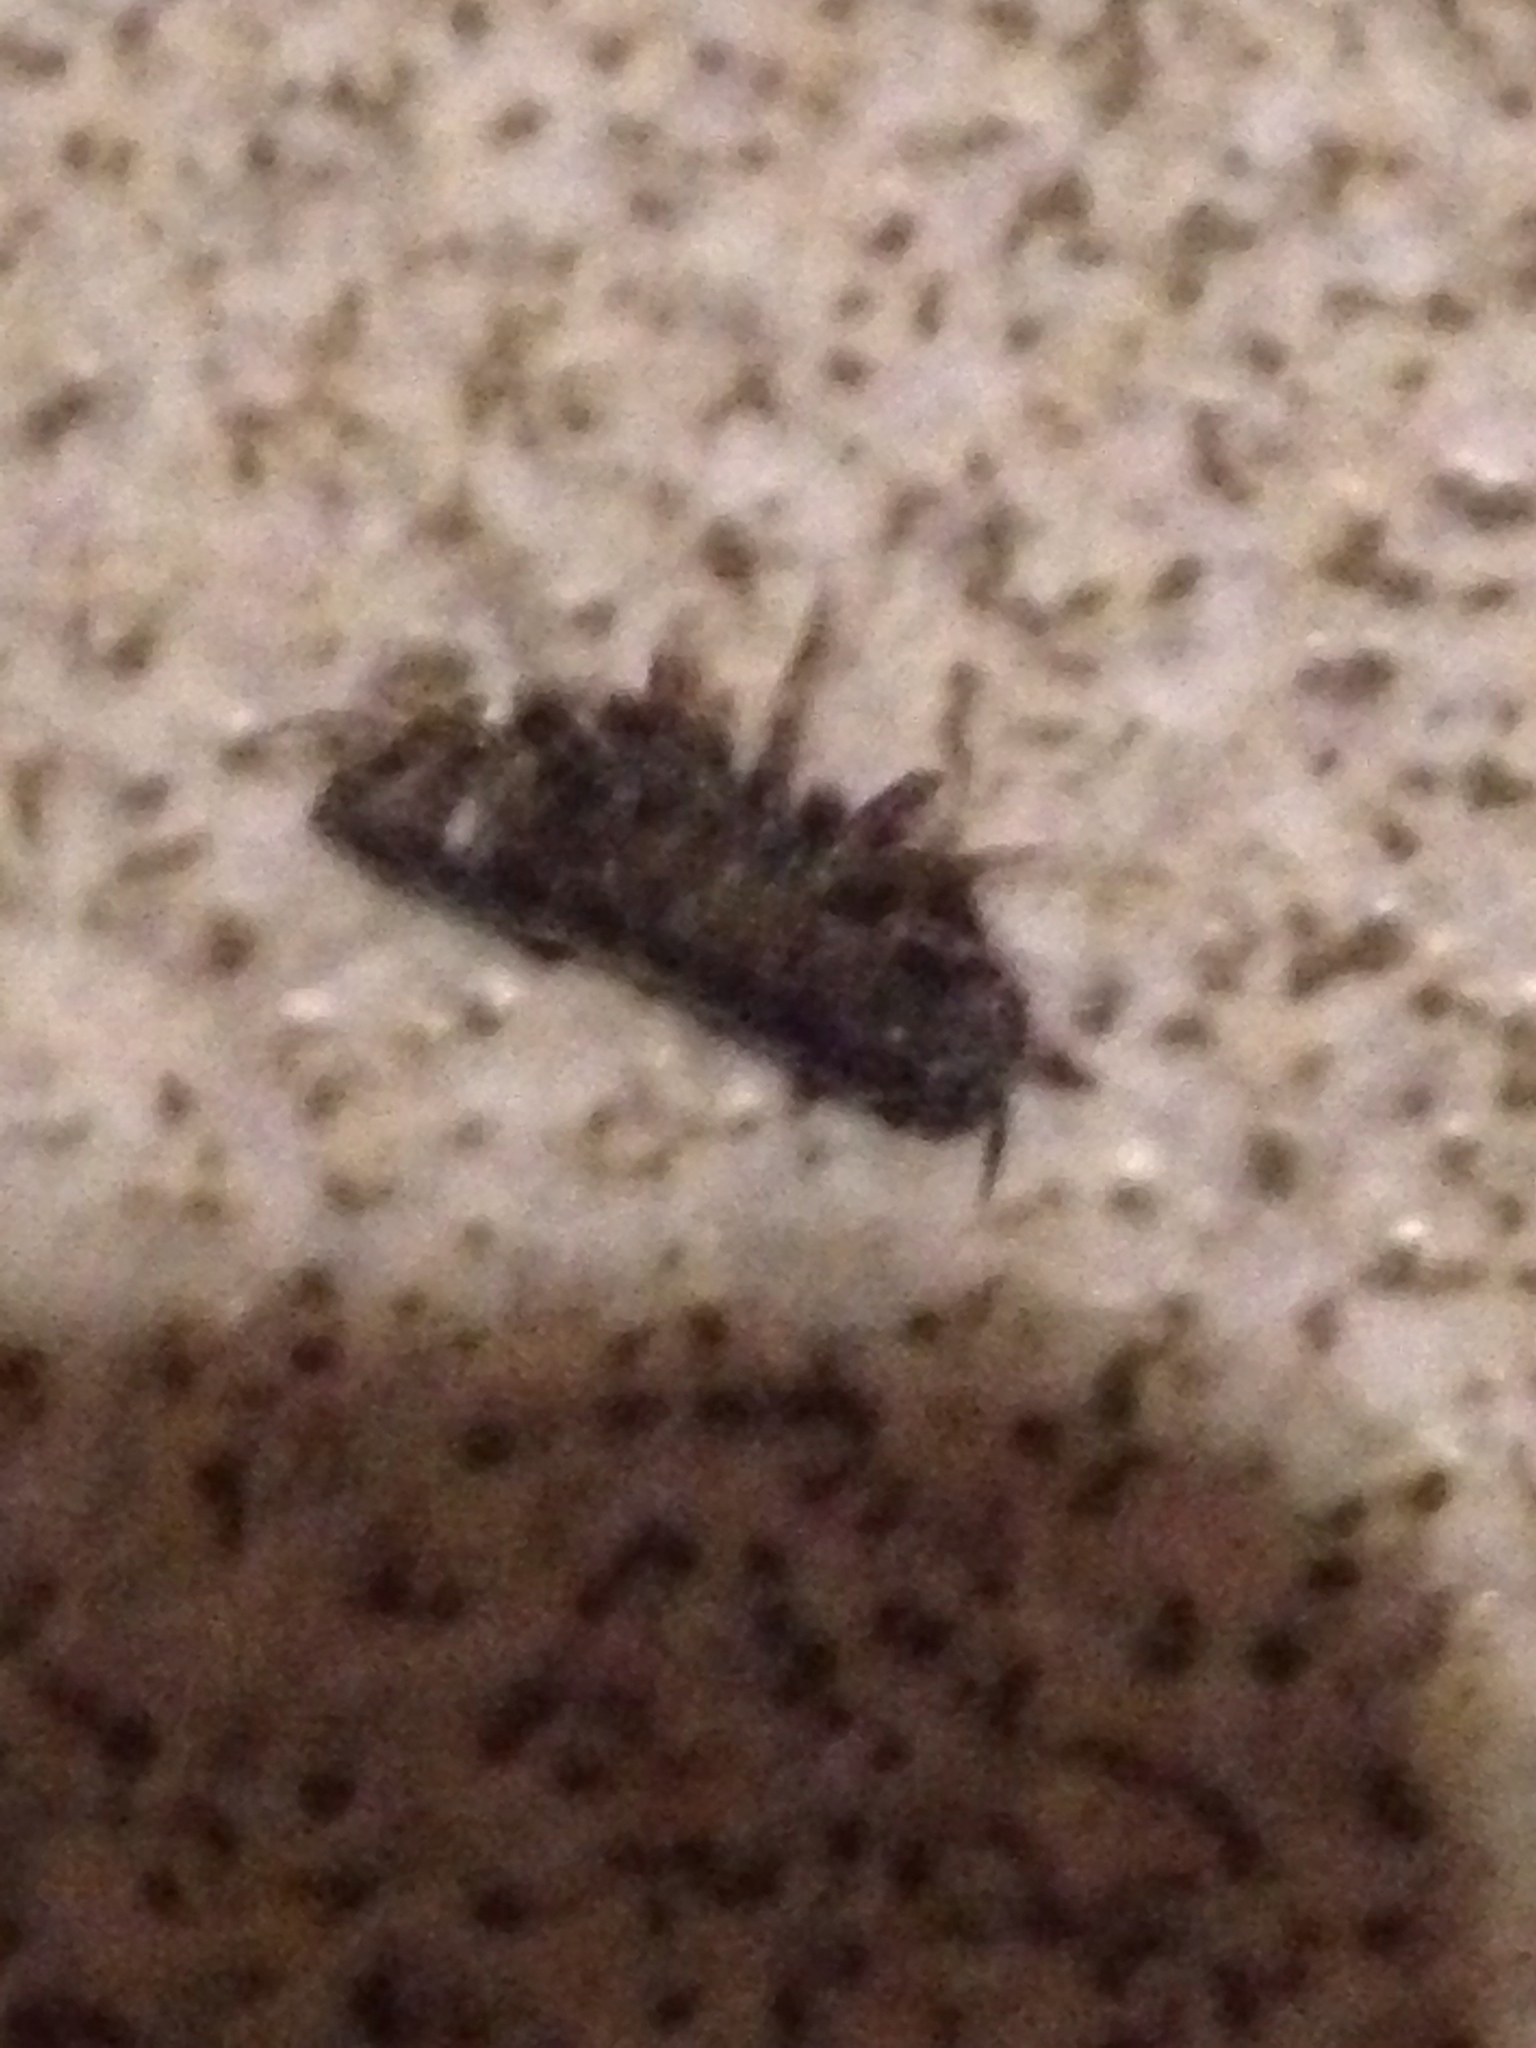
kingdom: Animalia
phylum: Arthropoda
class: Malacostraca
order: Isopoda
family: Armadillidiidae
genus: Armadillidium
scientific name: Armadillidium vulgare
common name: Common pill woodlouse
